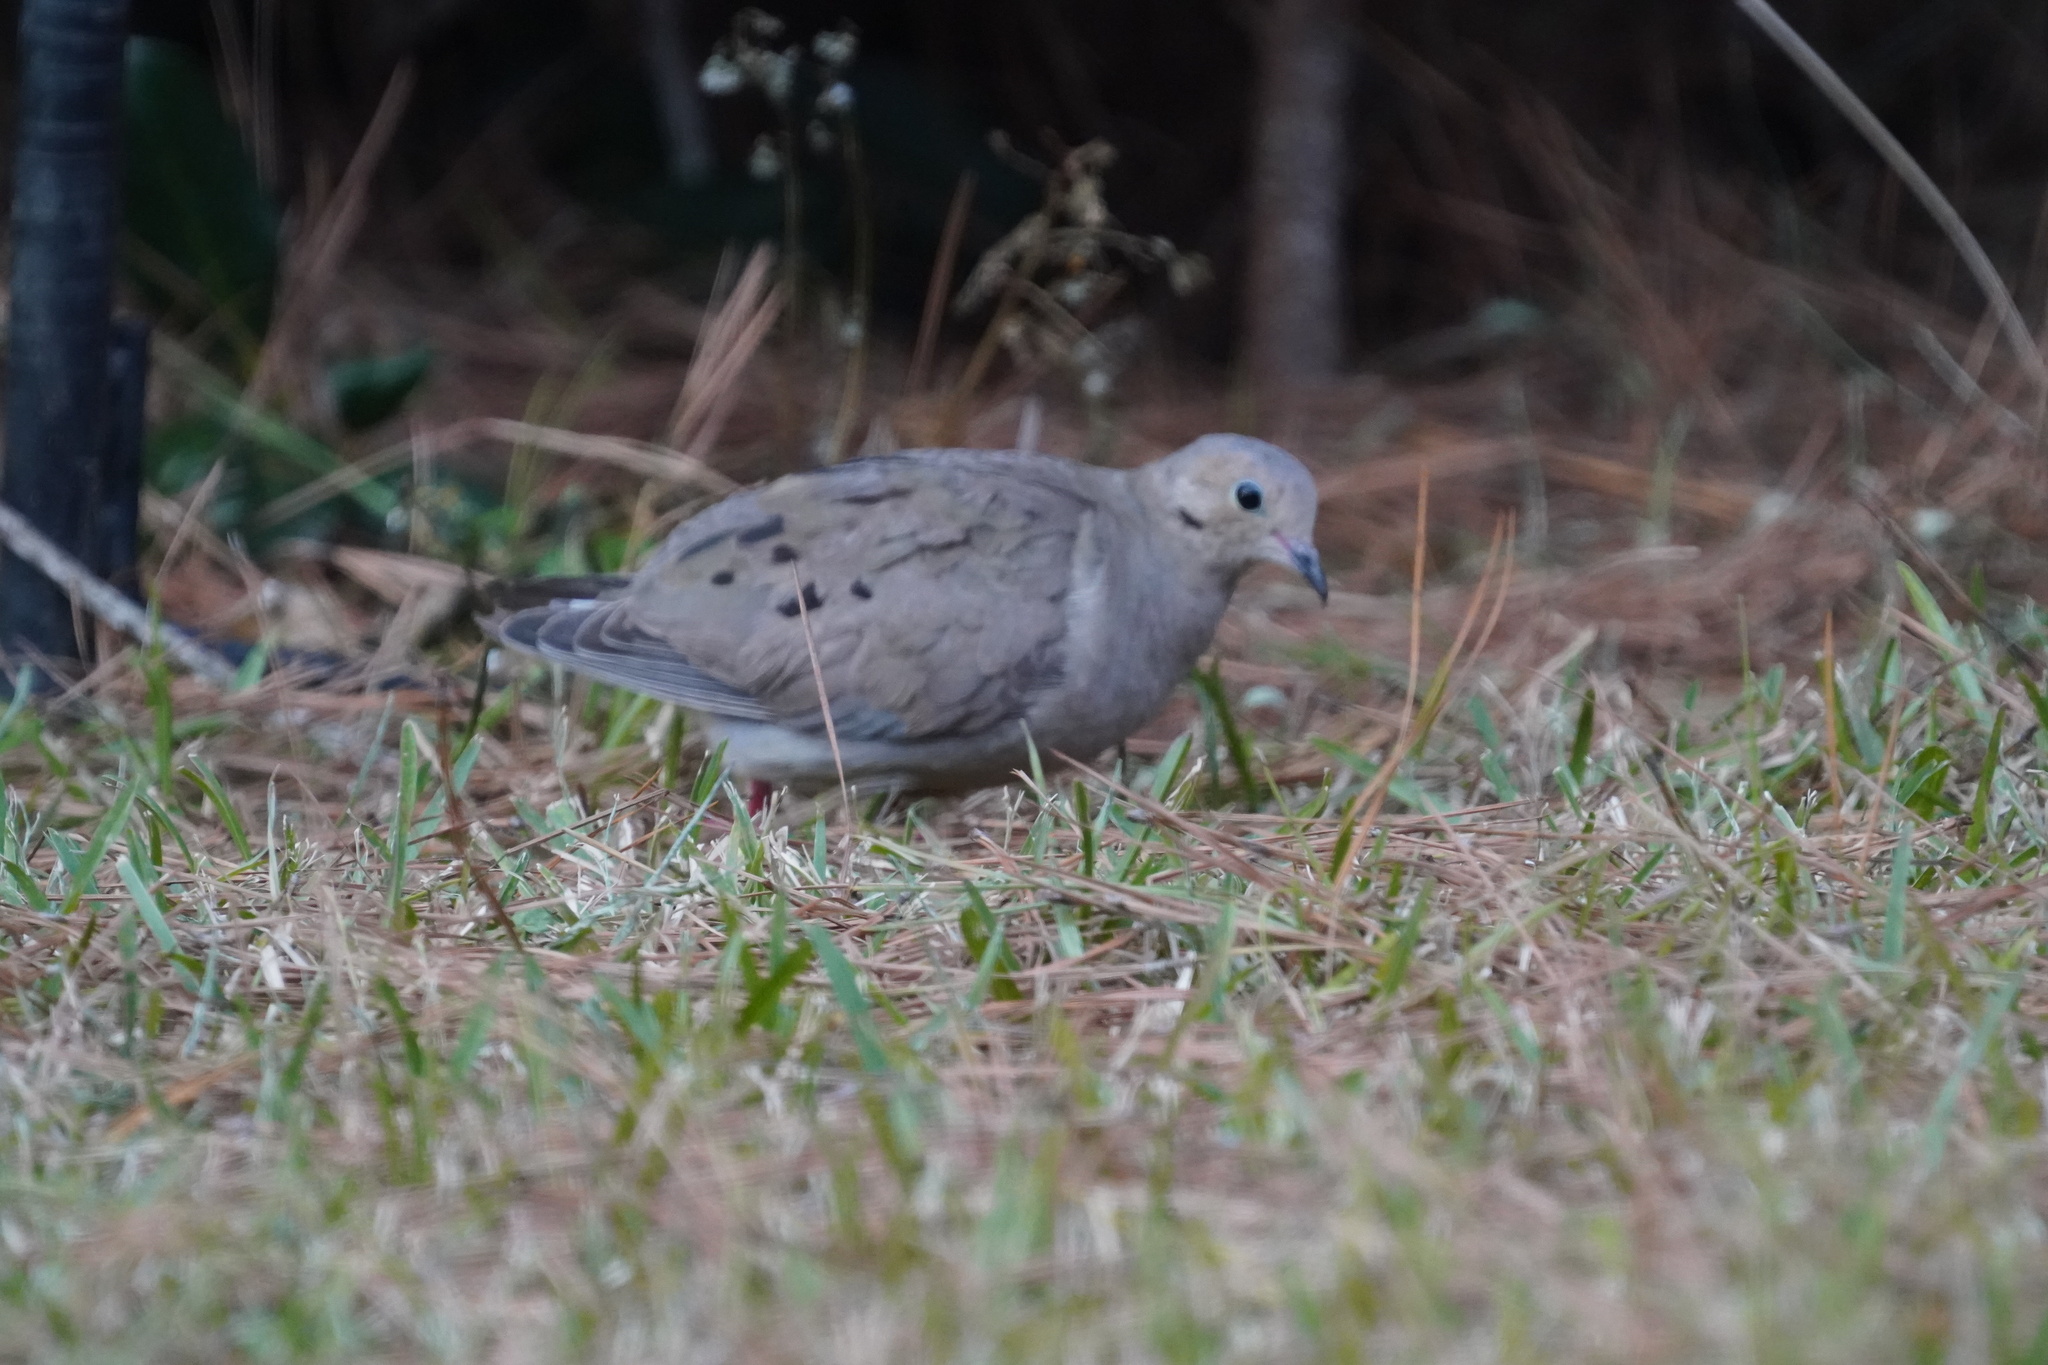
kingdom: Animalia
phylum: Chordata
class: Aves
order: Columbiformes
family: Columbidae
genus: Zenaida
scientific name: Zenaida macroura
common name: Mourning dove
